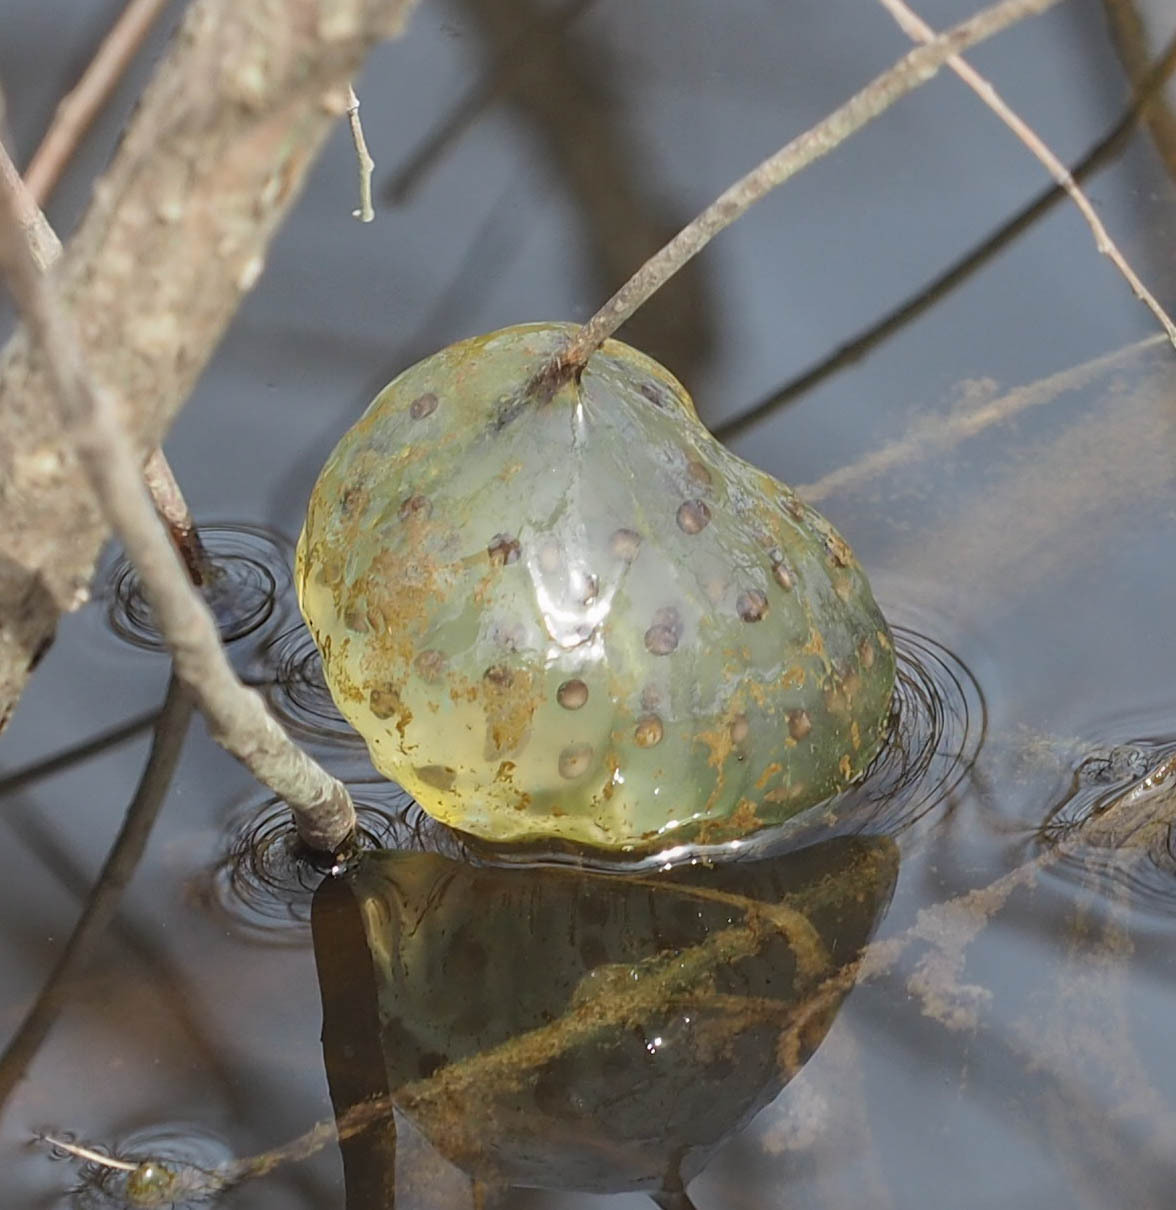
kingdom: Animalia
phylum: Chordata
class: Amphibia
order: Caudata
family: Ambystomatidae
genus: Ambystoma
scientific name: Ambystoma maculatum
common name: Spotted salamander
